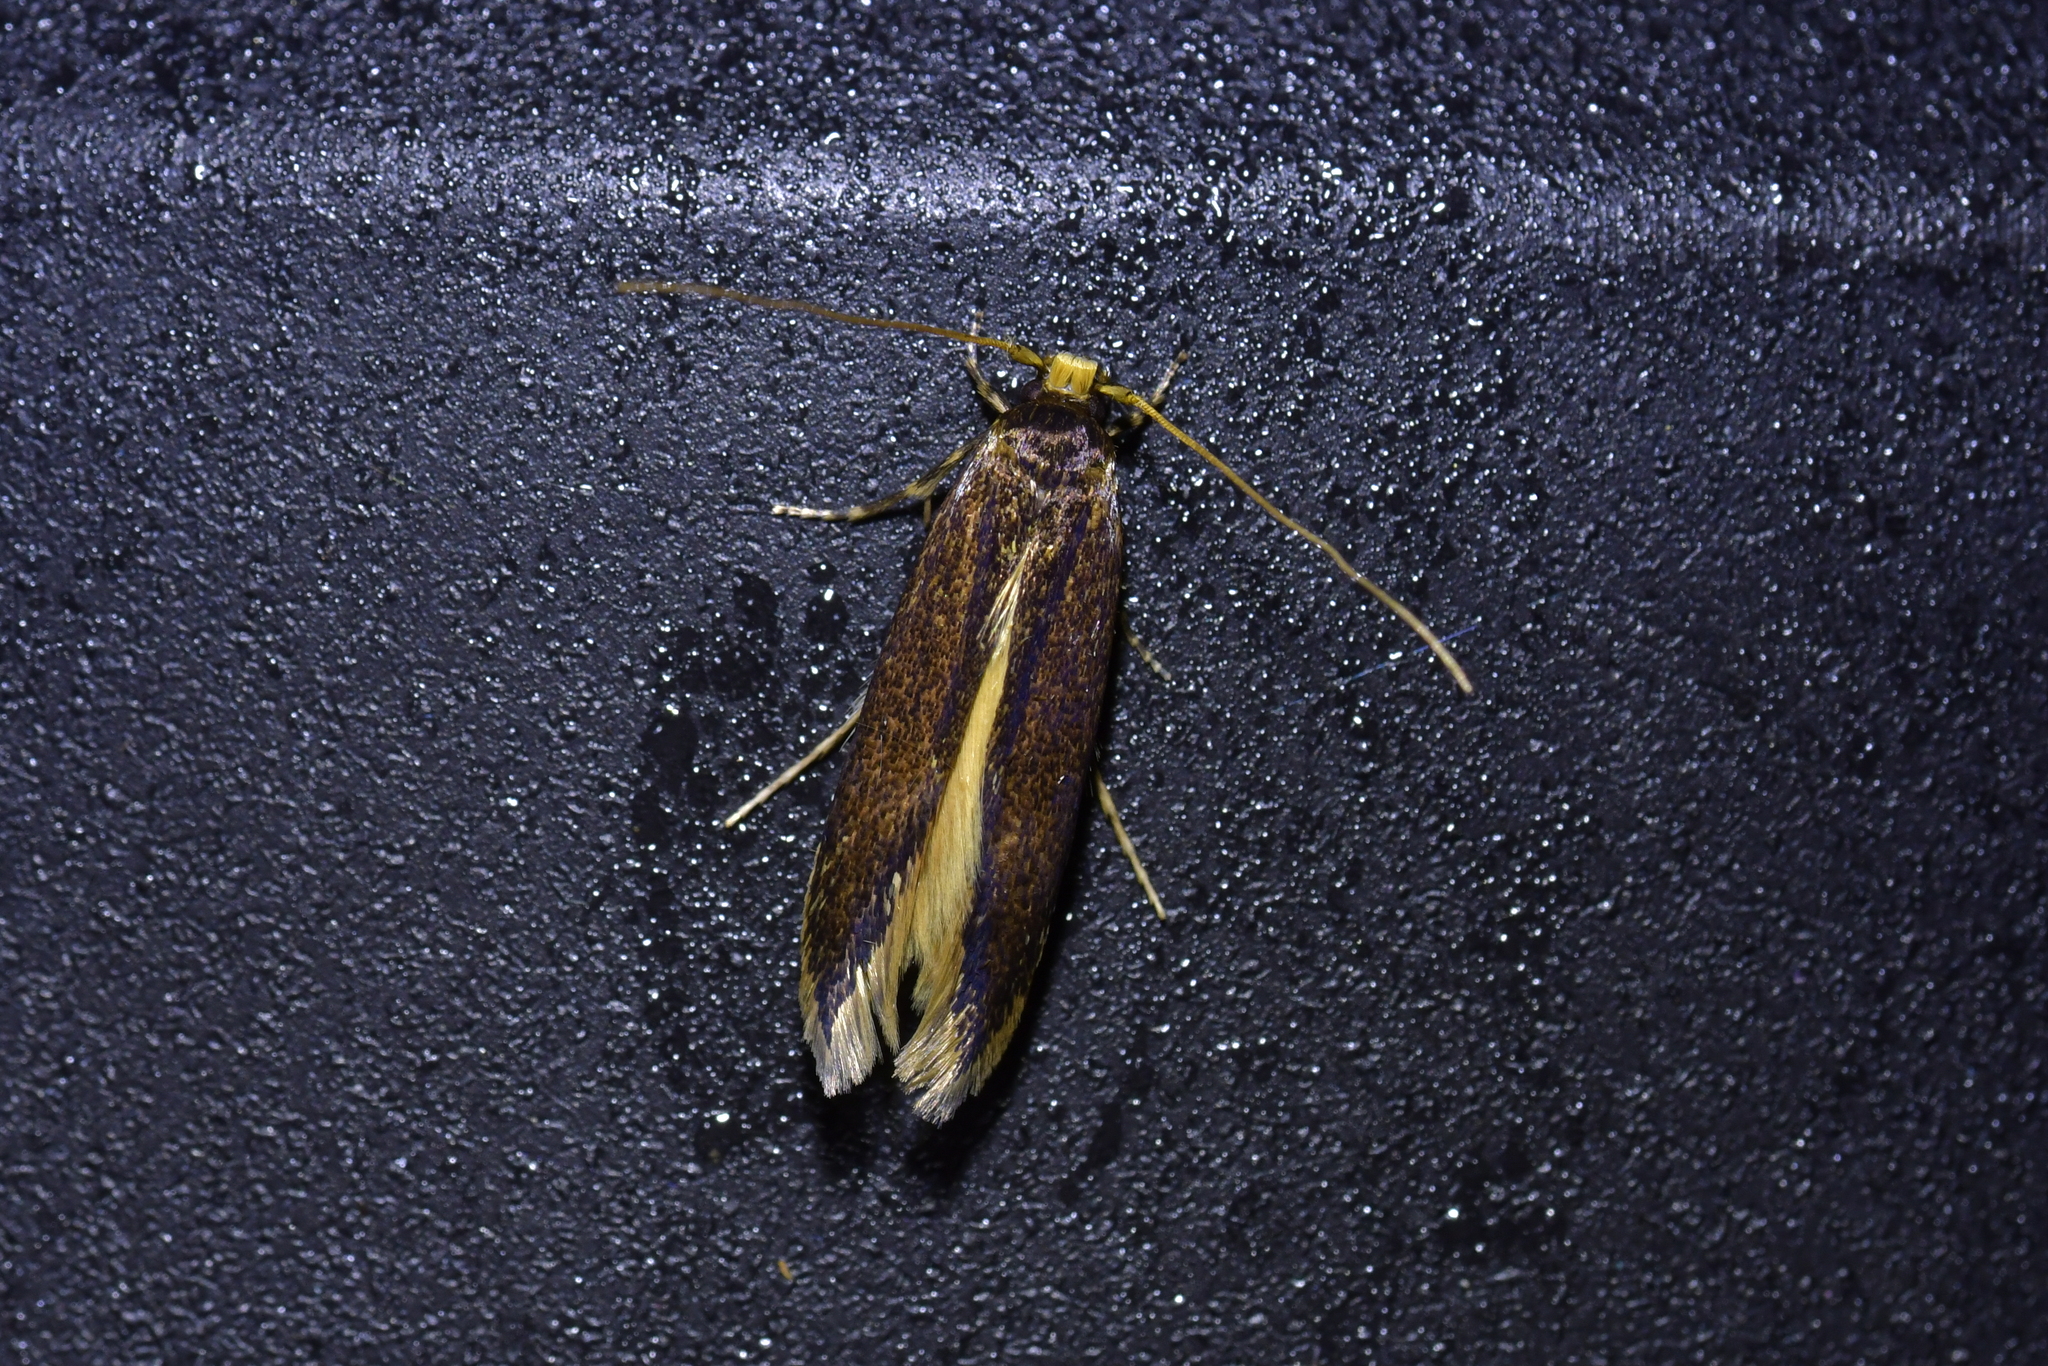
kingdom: Animalia
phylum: Arthropoda
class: Insecta
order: Lepidoptera
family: Tineidae
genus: Opogona
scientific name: Opogona omoscopa
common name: Moth
